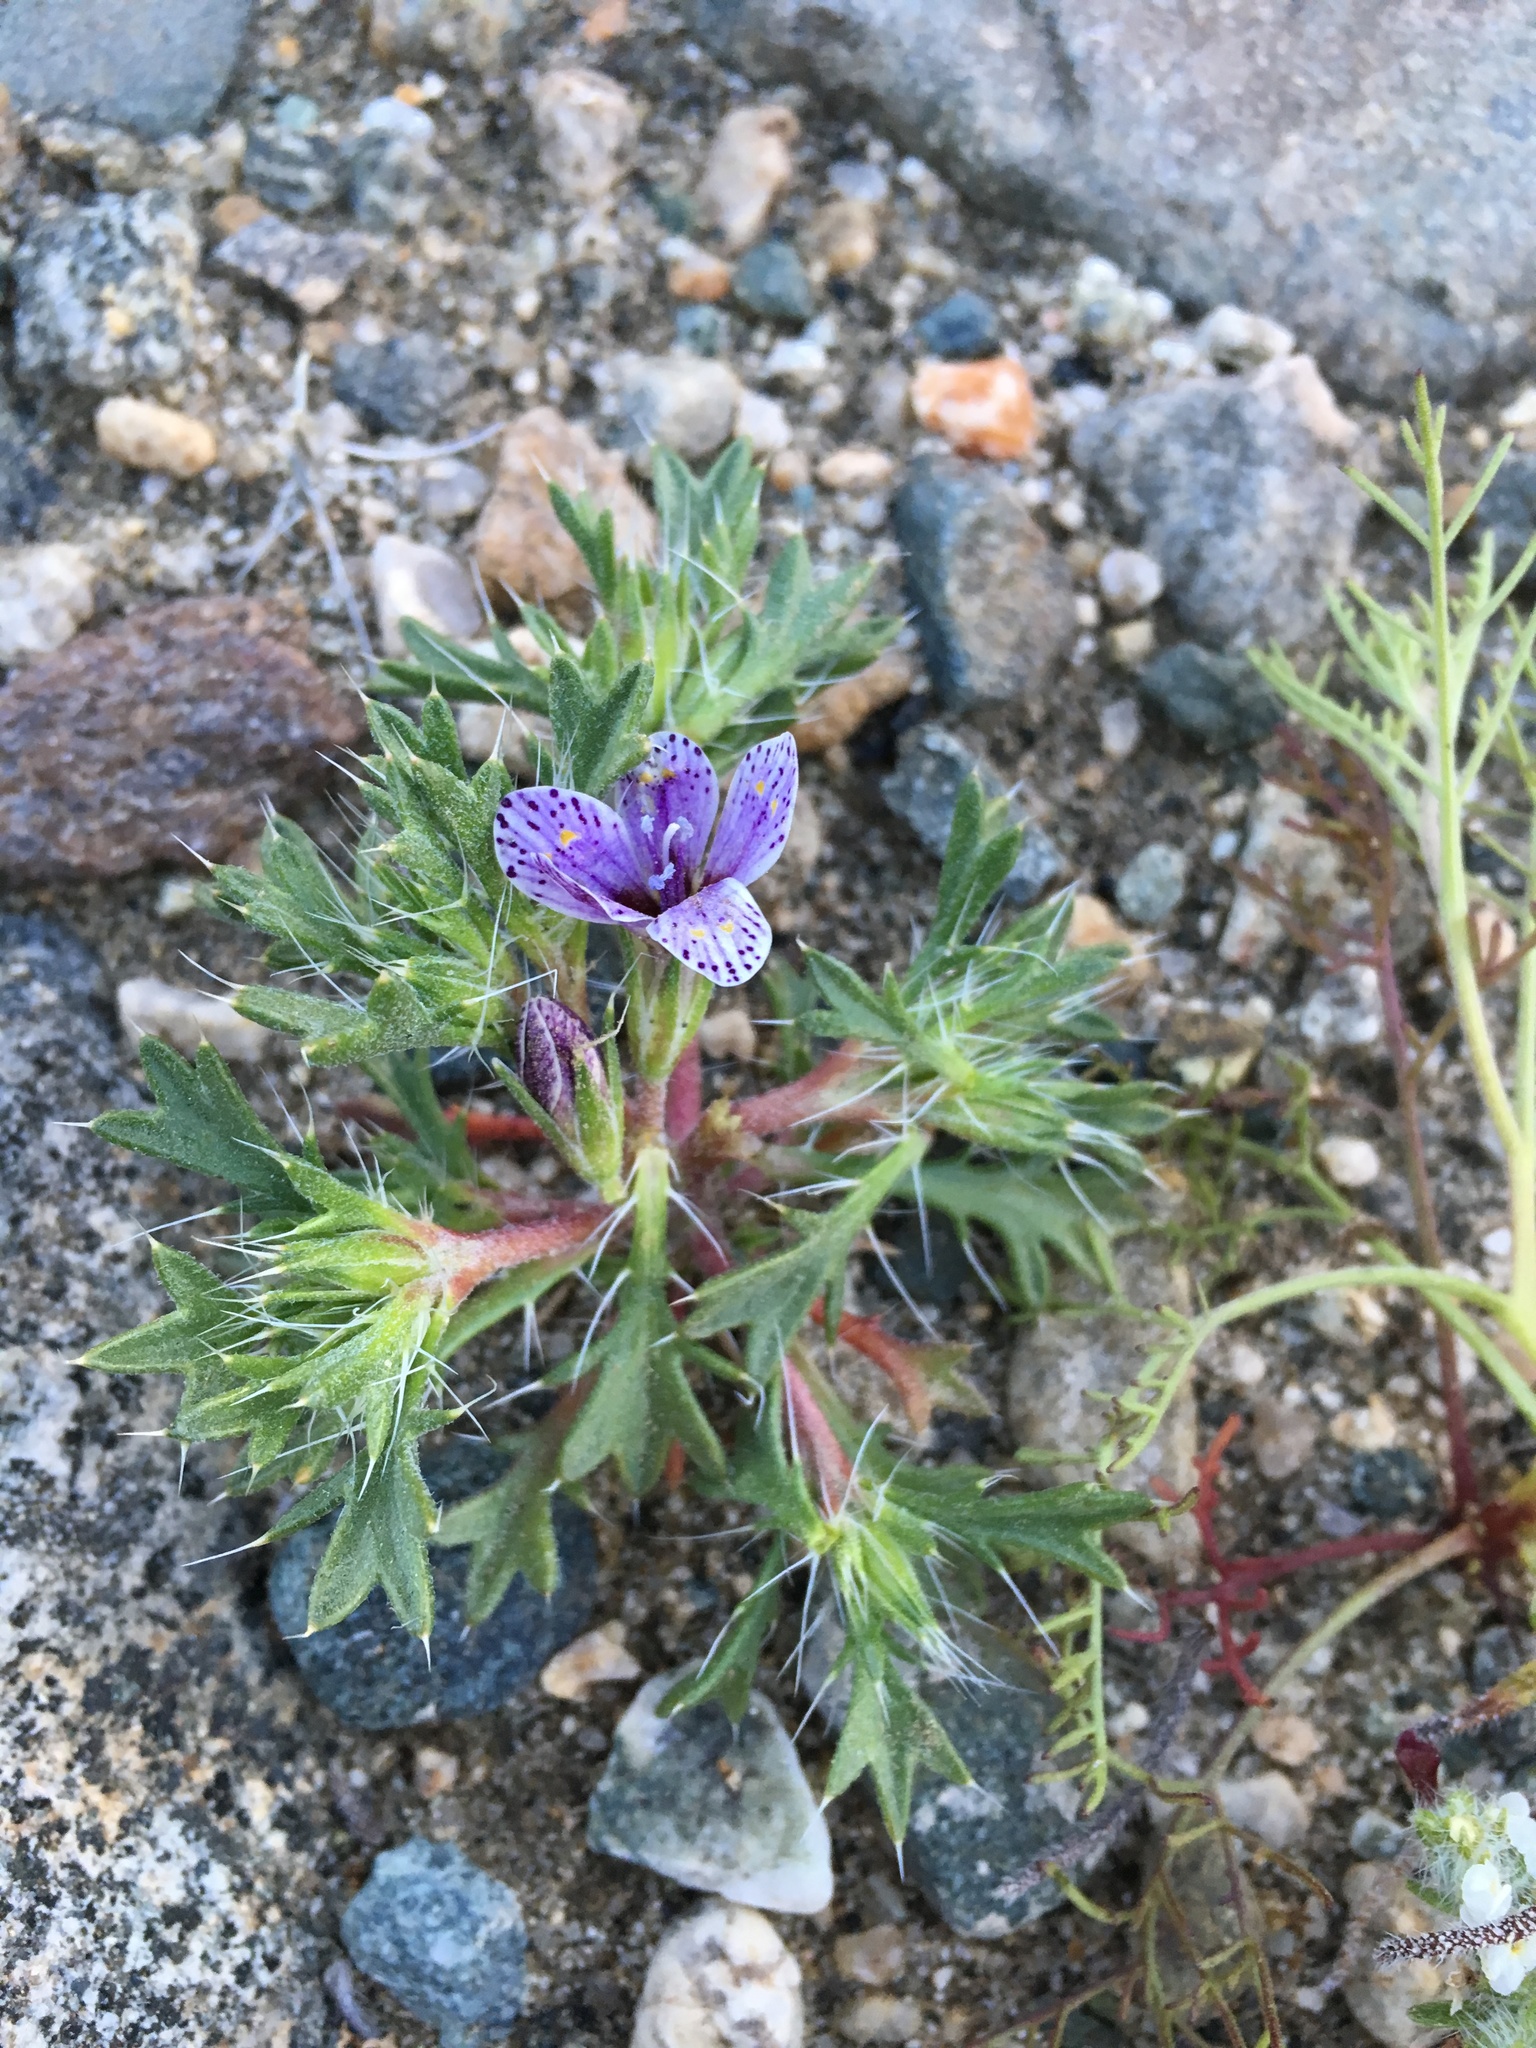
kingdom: Plantae
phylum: Tracheophyta
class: Magnoliopsida
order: Ericales
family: Polemoniaceae
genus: Langloisia
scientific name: Langloisia setosissima
